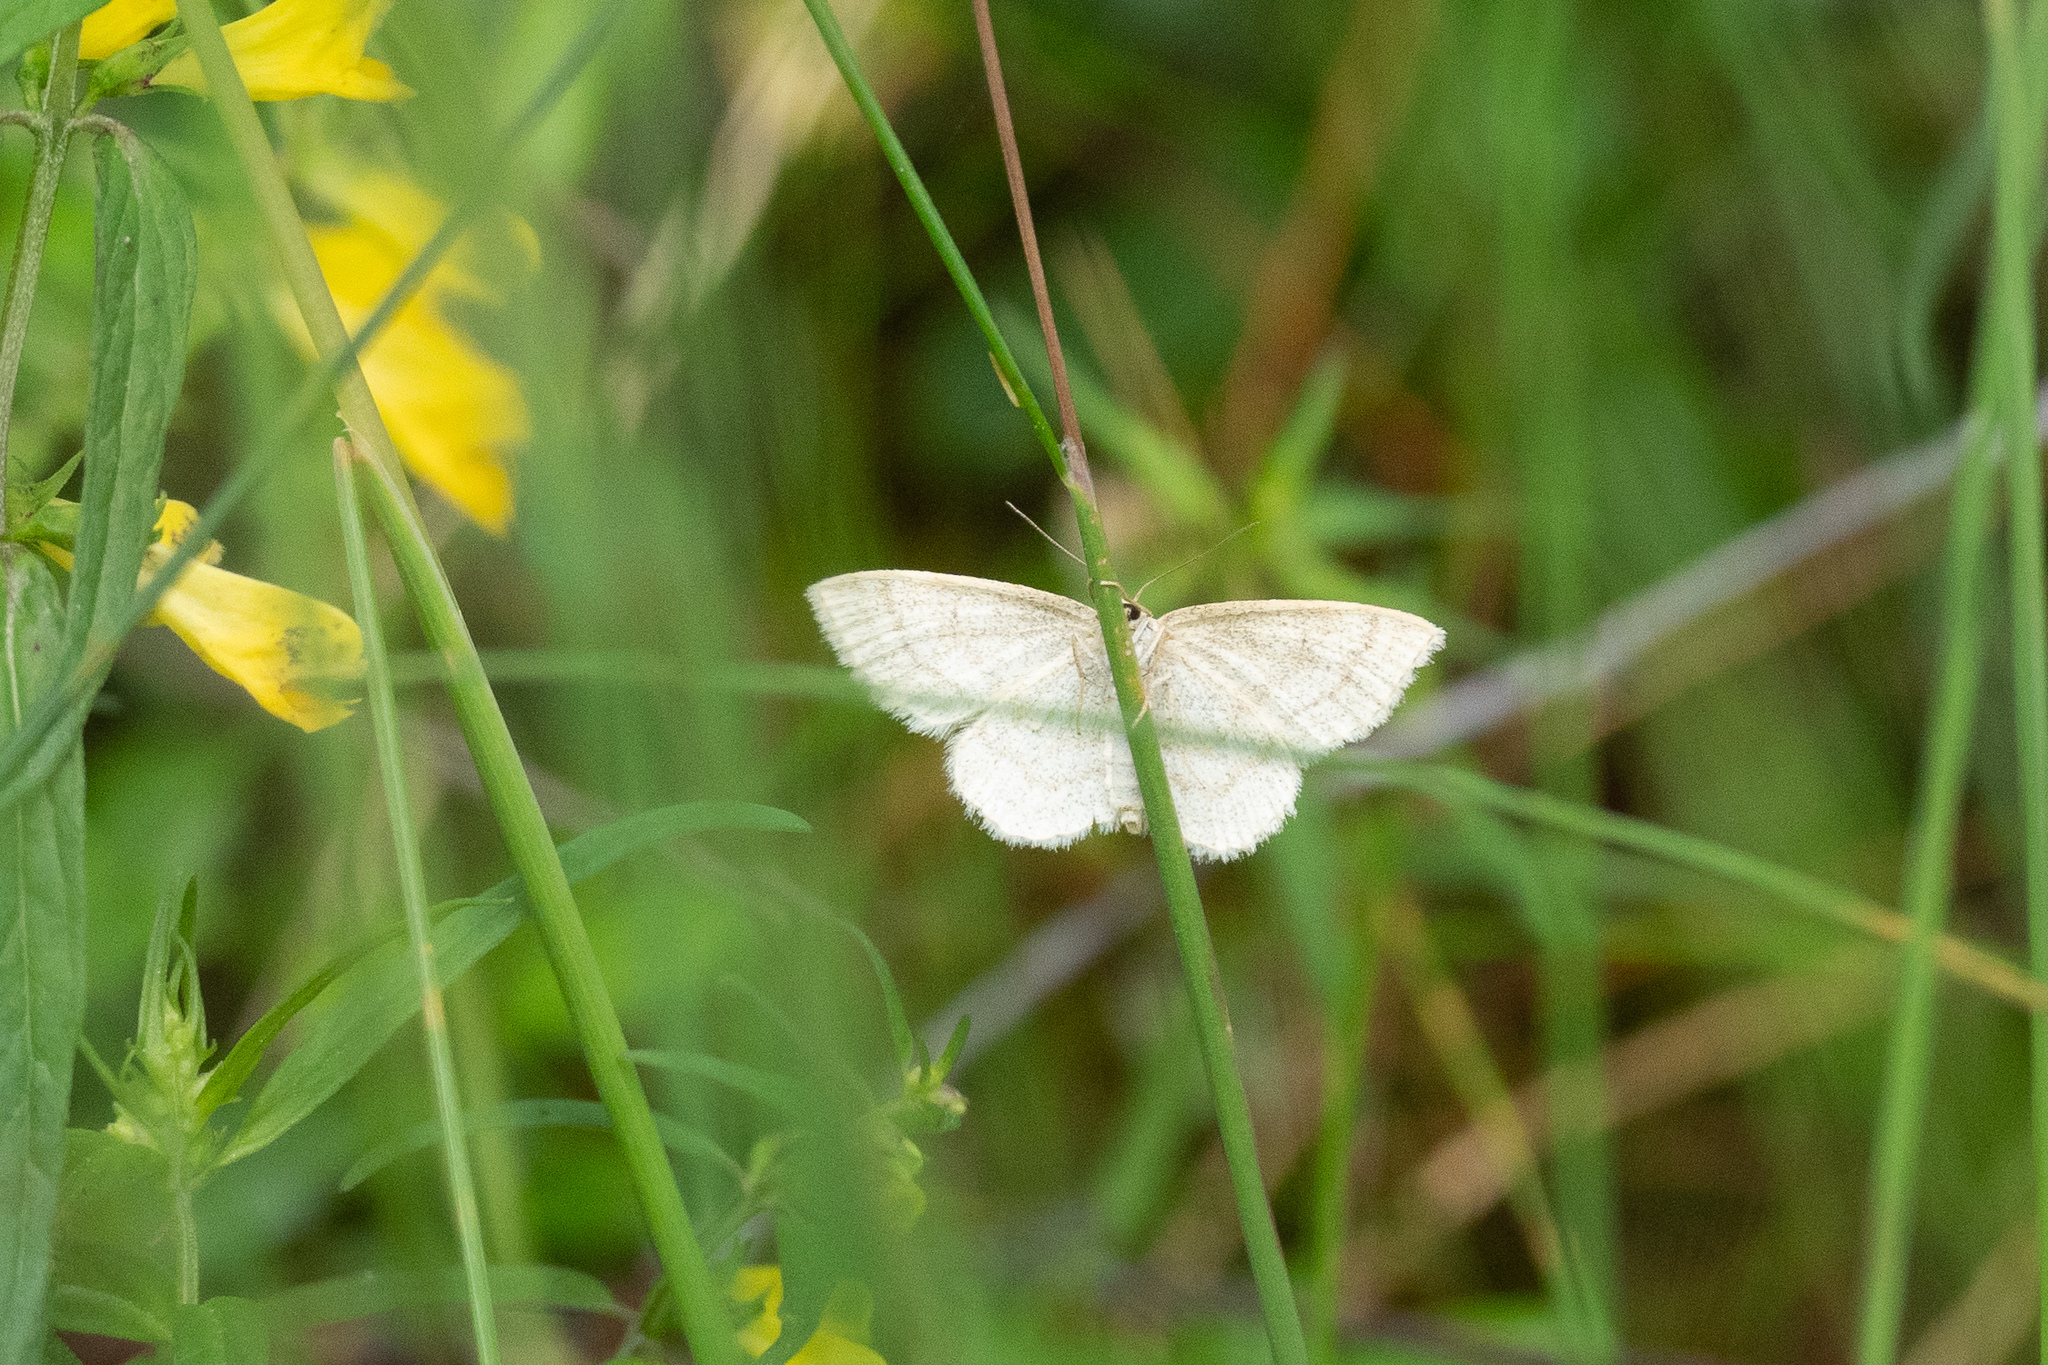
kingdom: Animalia
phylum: Arthropoda
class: Insecta
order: Lepidoptera
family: Geometridae
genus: Scopula
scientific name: Scopula ternata
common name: Smoky wave
